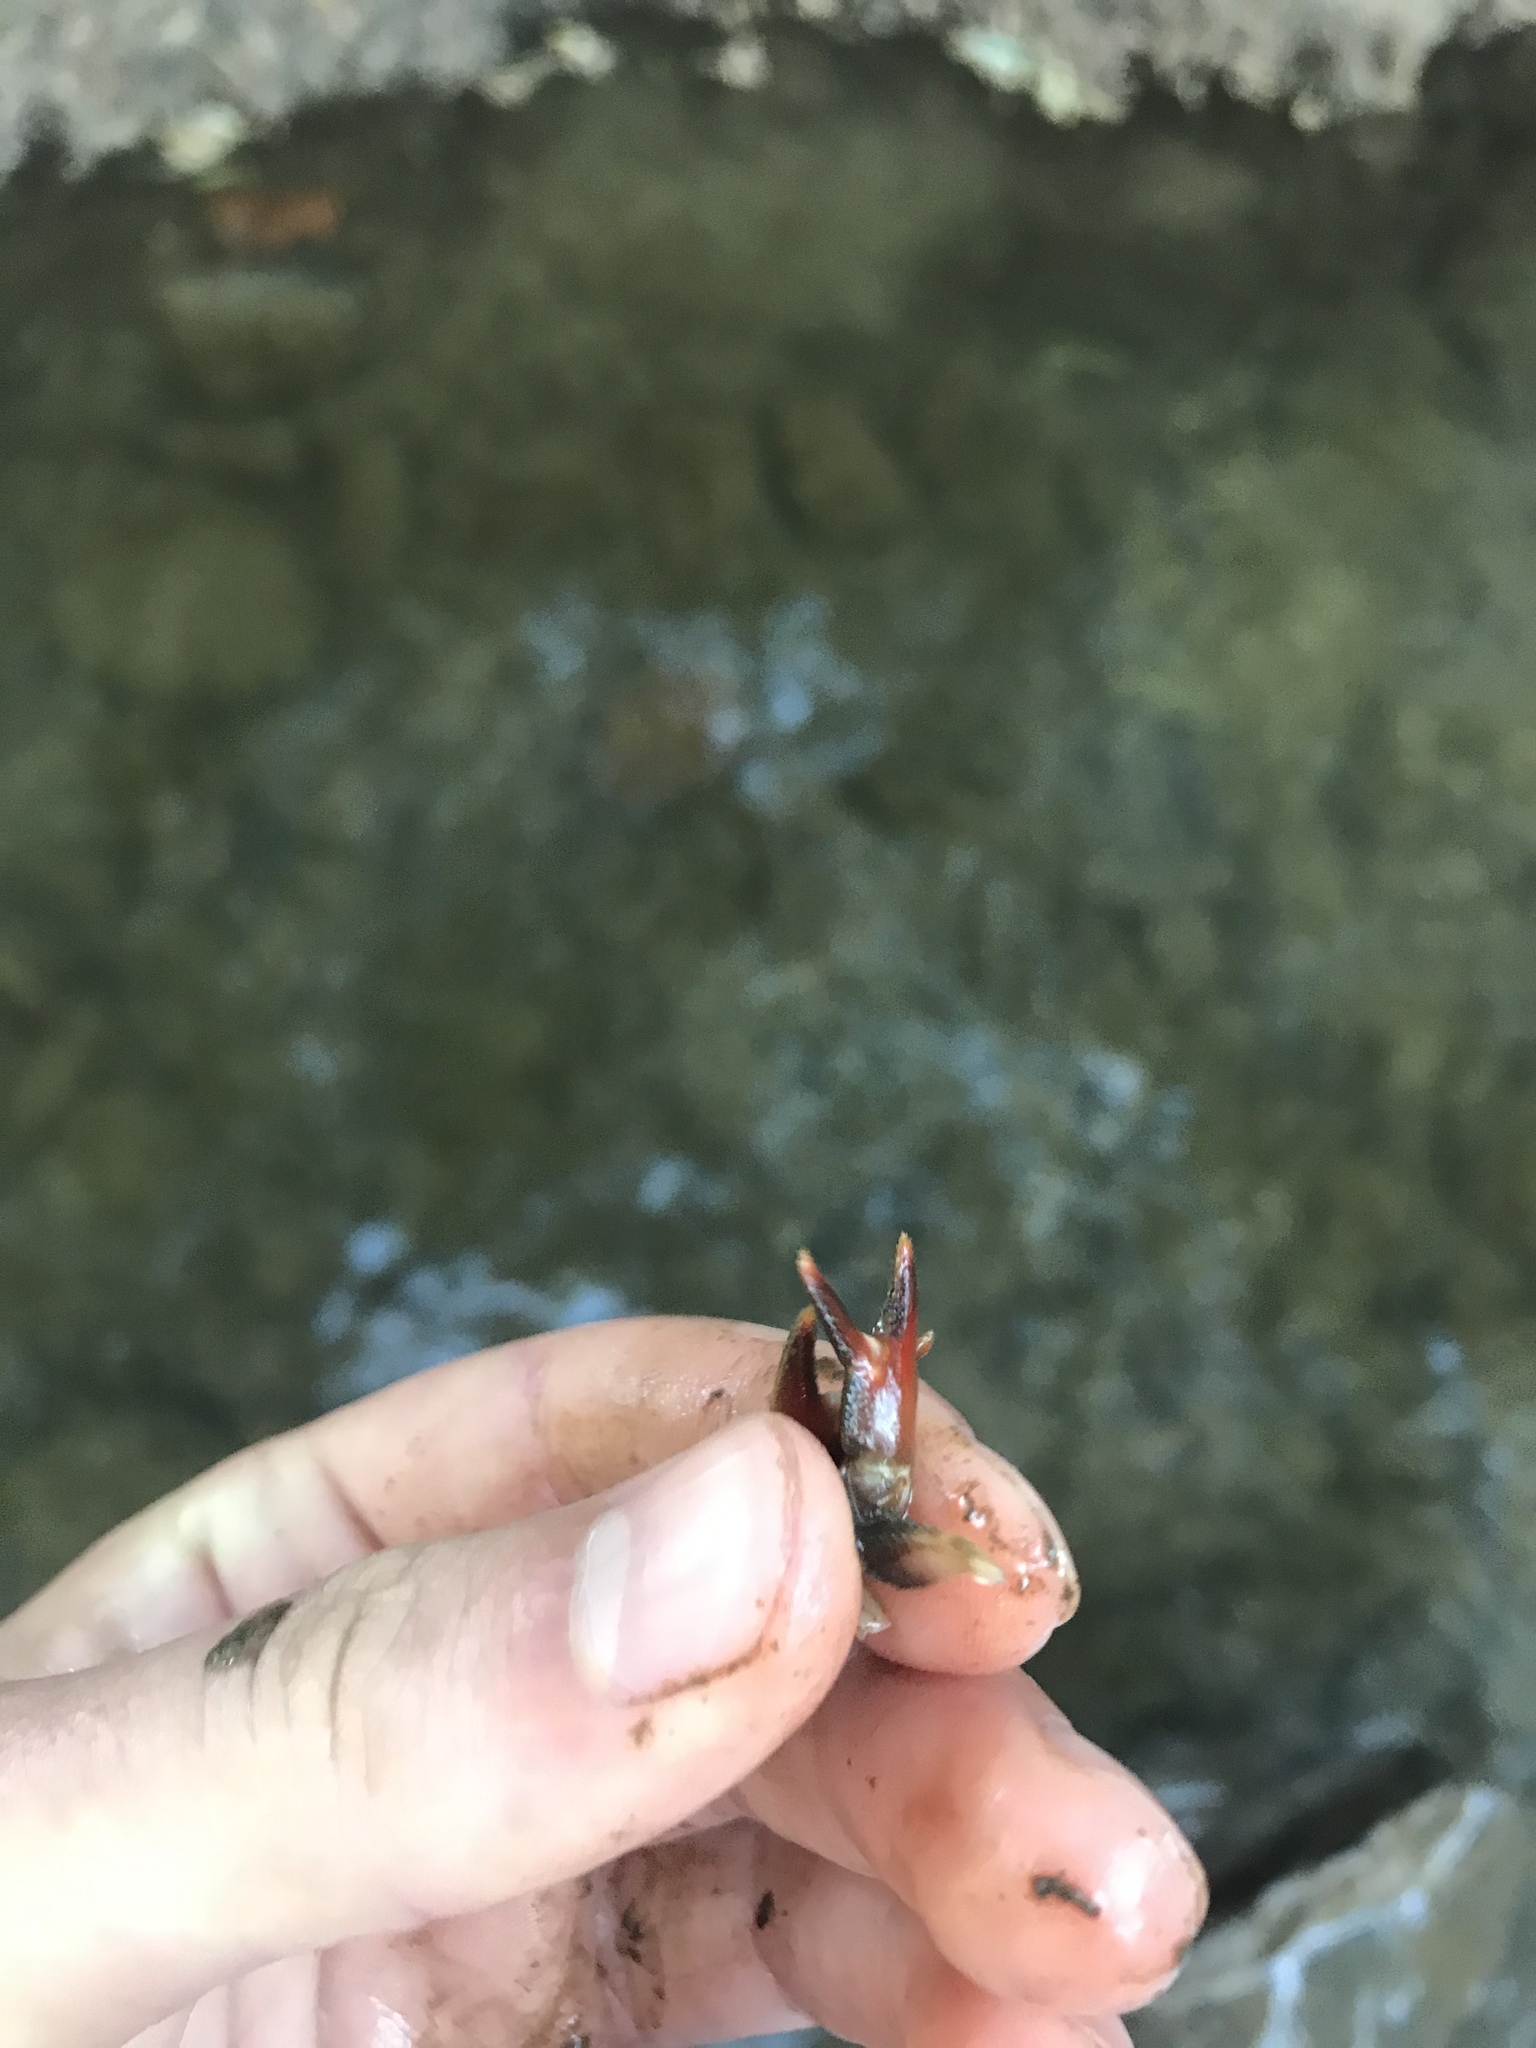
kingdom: Animalia
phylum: Arthropoda
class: Malacostraca
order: Decapoda
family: Astacidae
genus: Pacifastacus
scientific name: Pacifastacus leniusculus
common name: Signal crayfish
